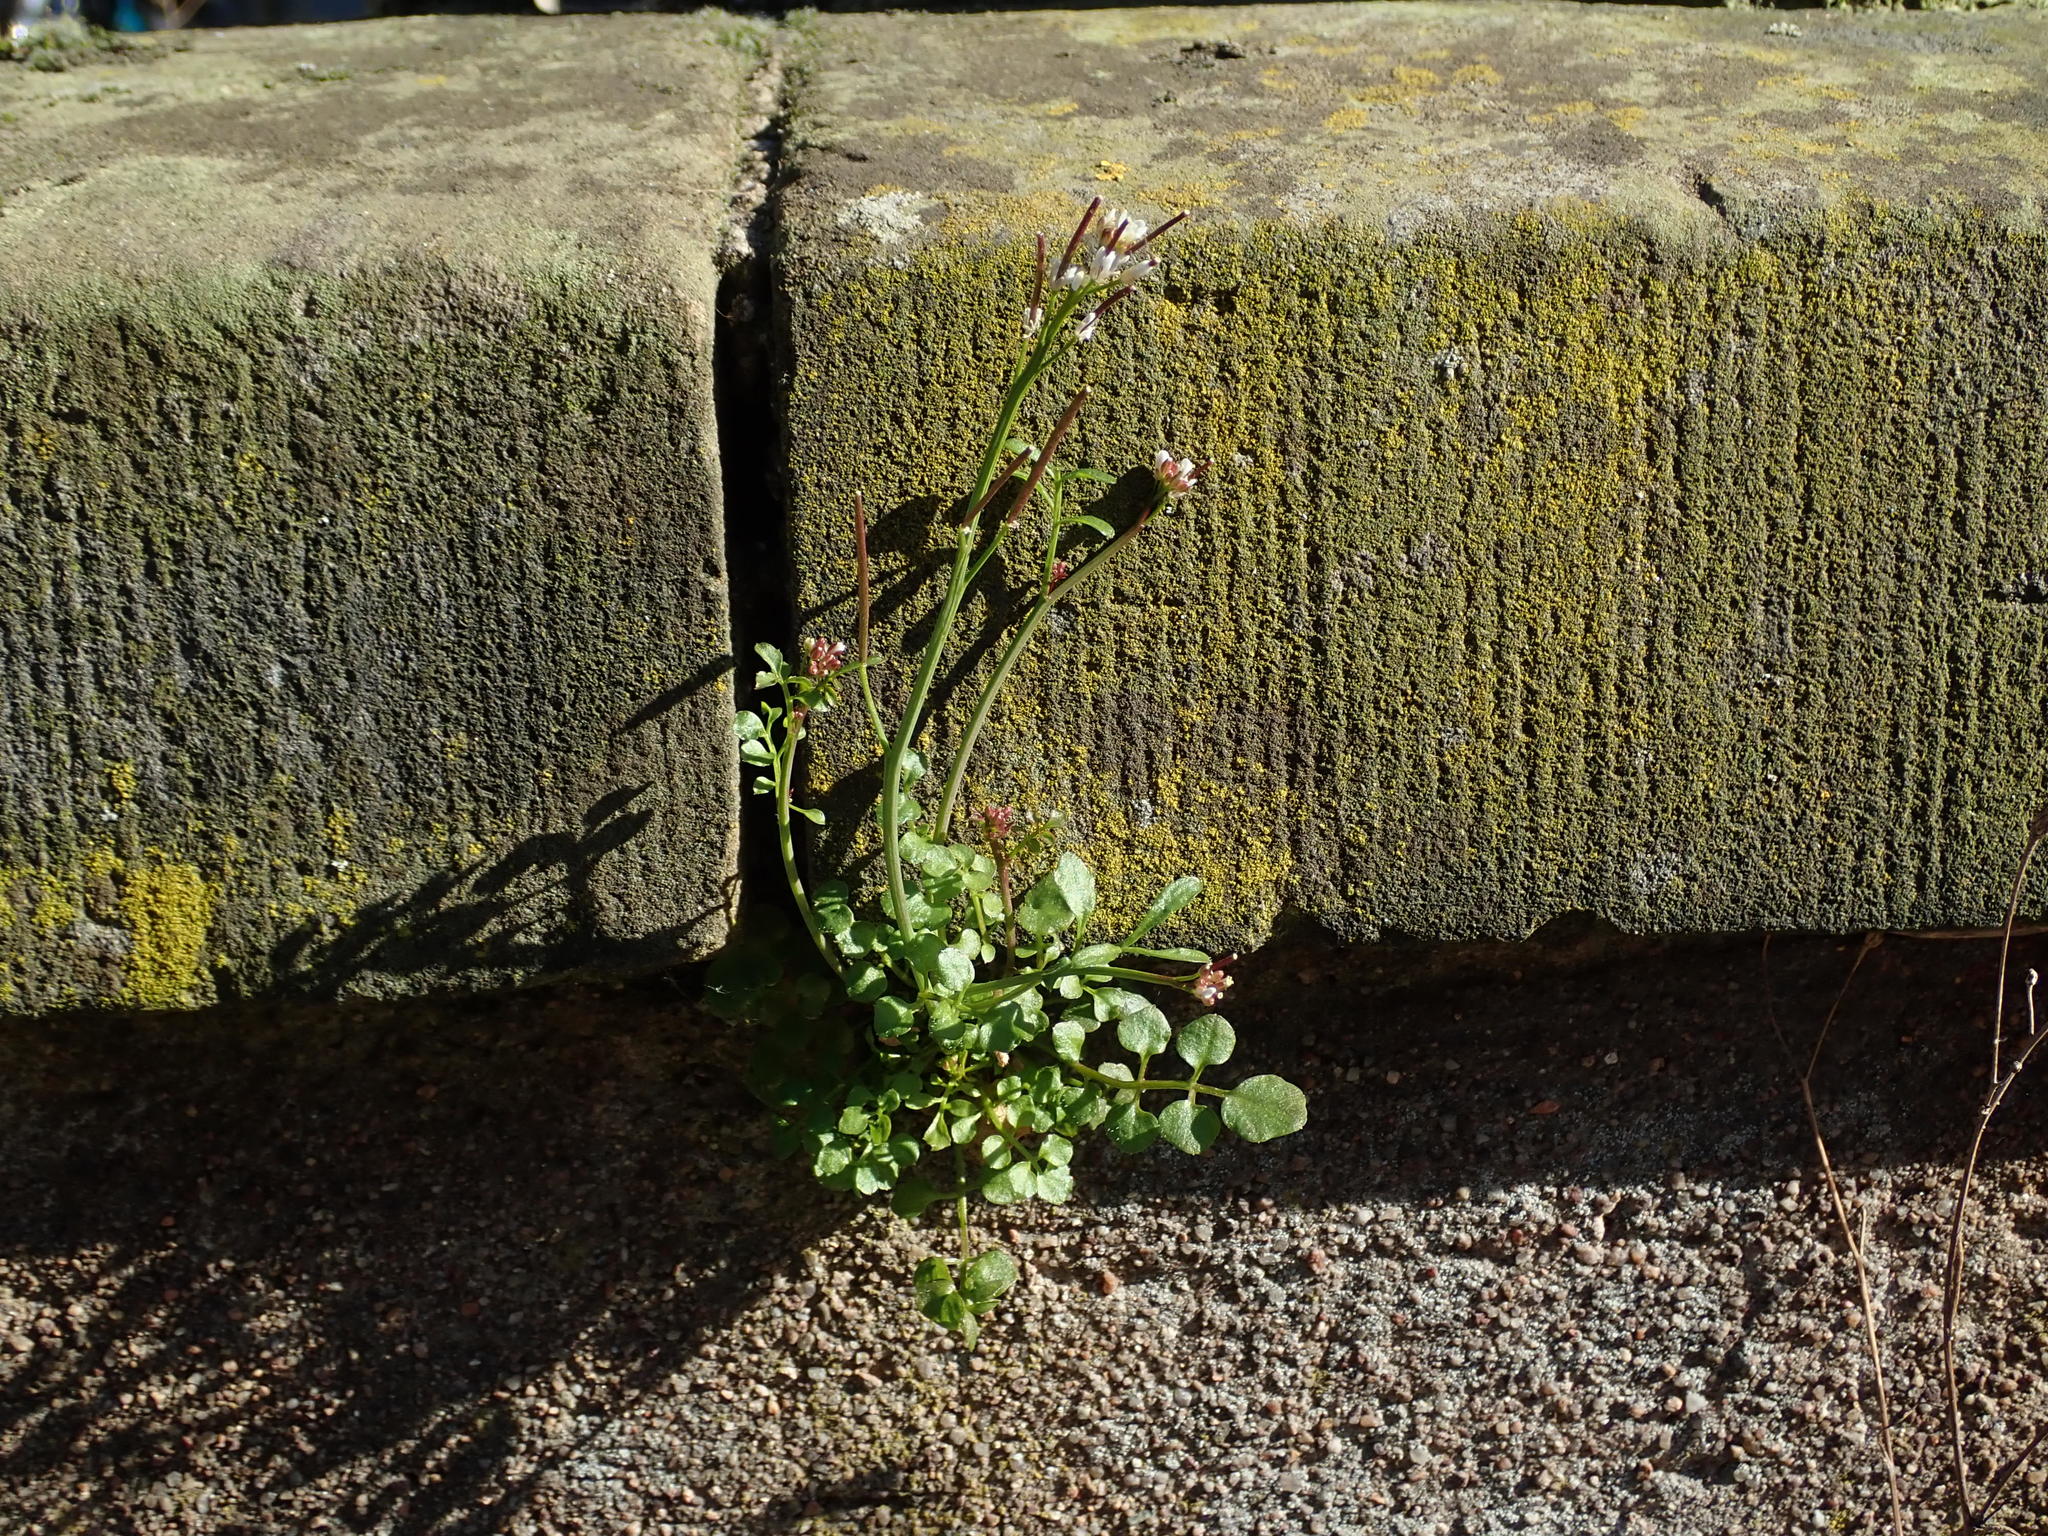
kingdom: Plantae
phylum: Tracheophyta
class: Magnoliopsida
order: Brassicales
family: Brassicaceae
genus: Cardamine
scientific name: Cardamine hirsuta
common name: Hairy bittercress
